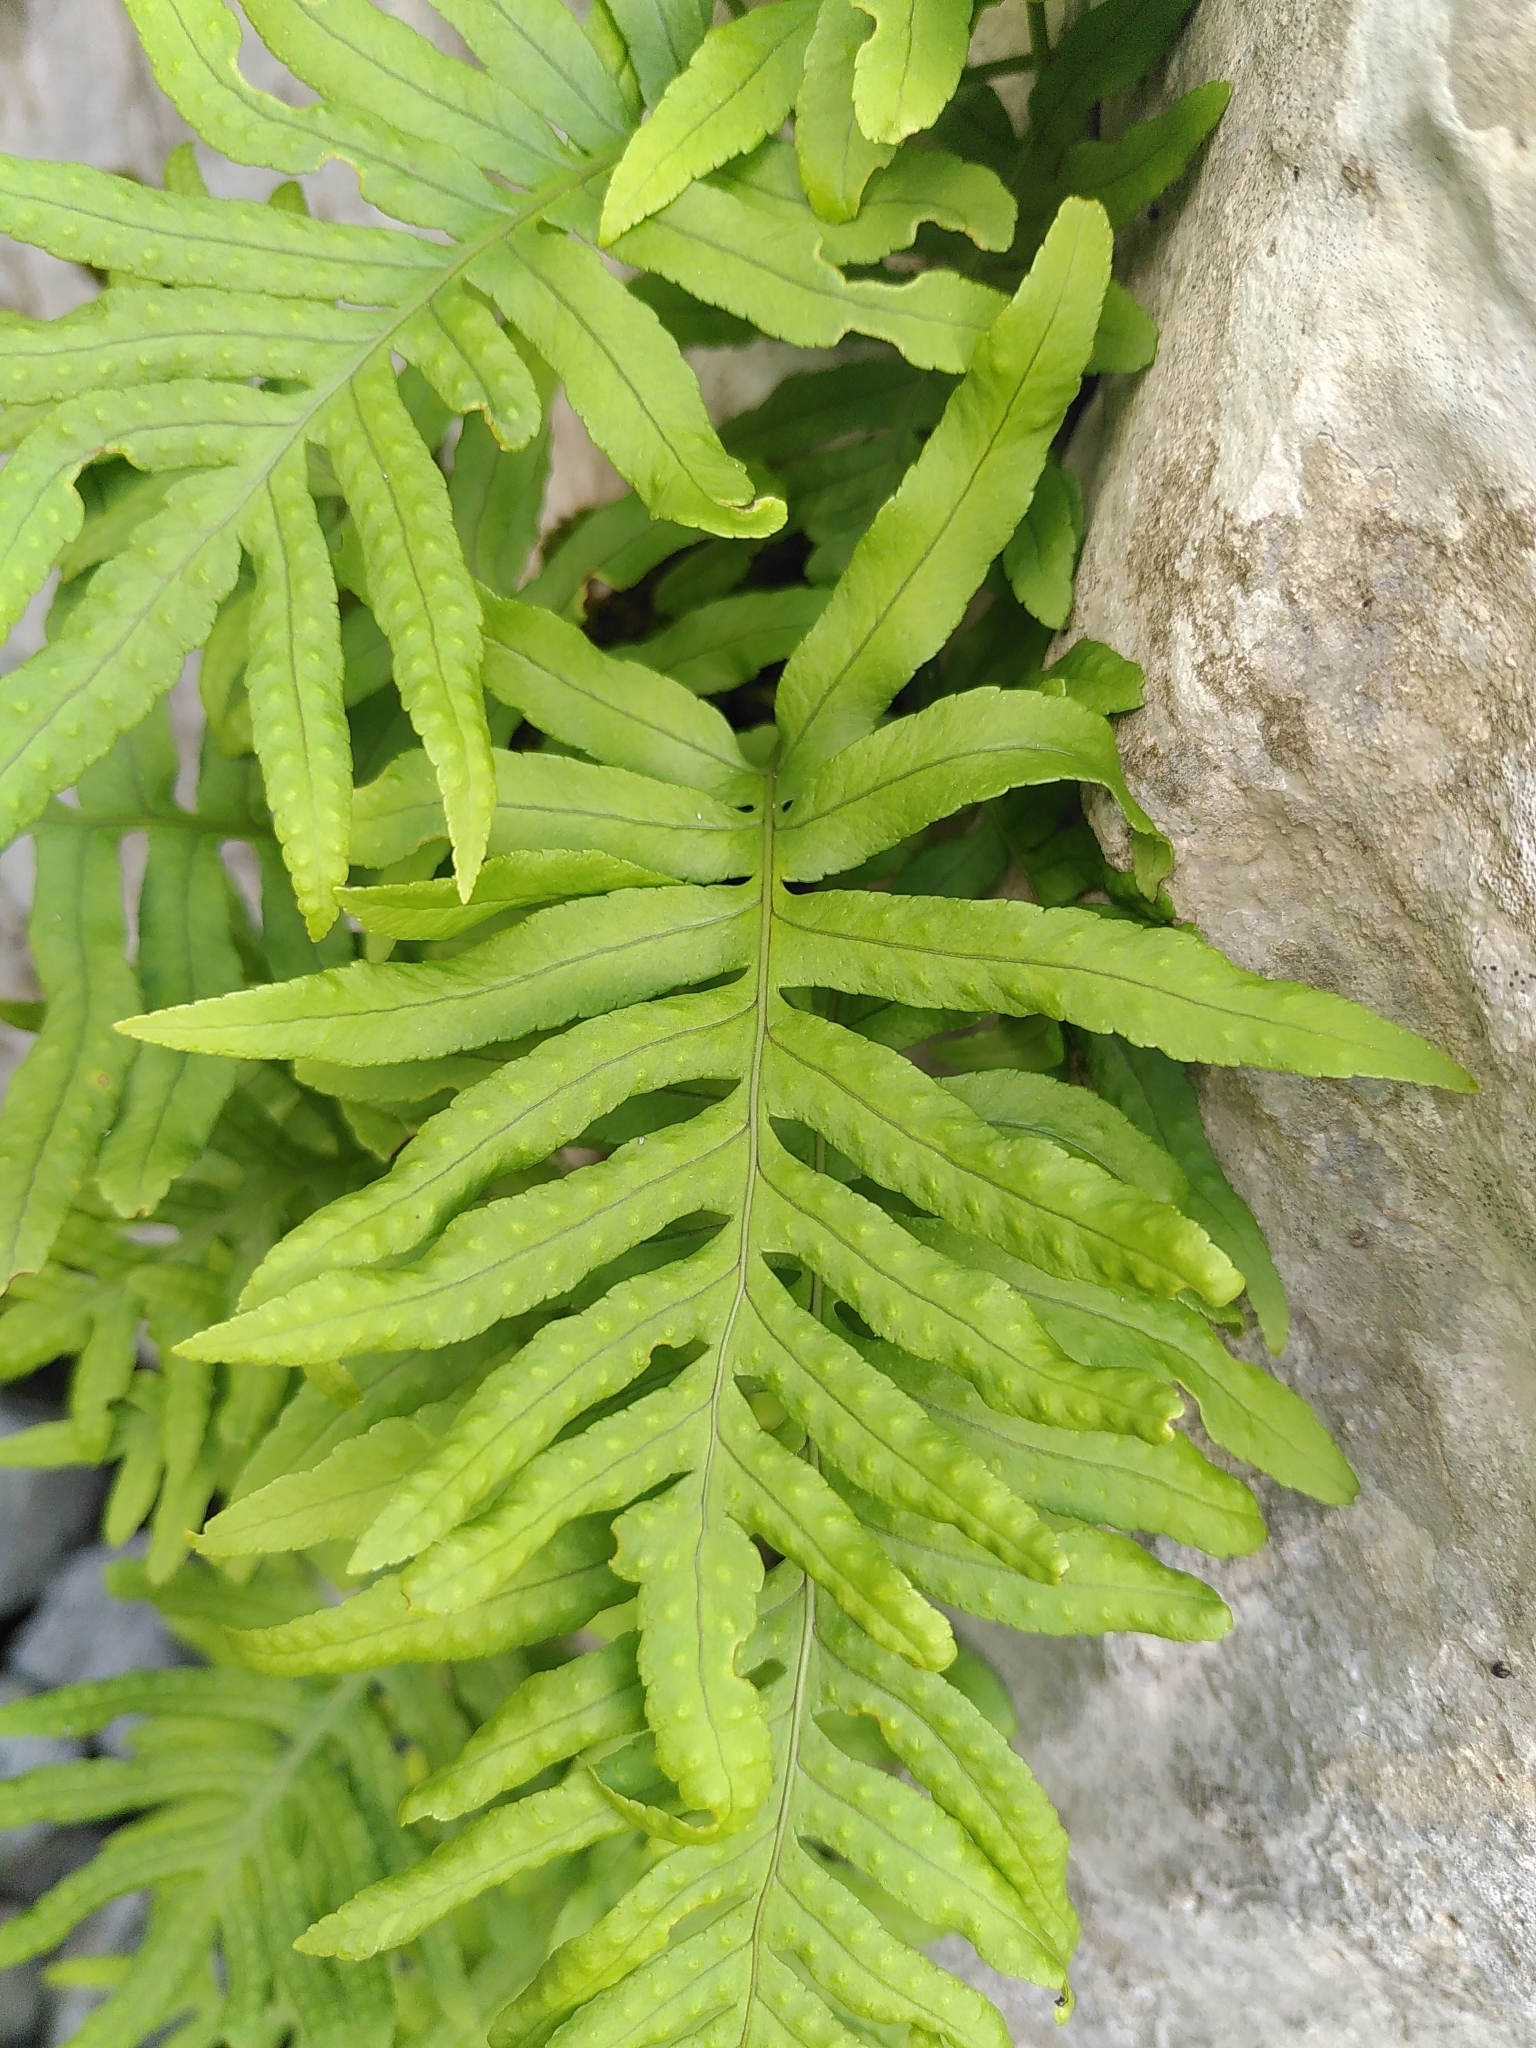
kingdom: Plantae
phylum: Tracheophyta
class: Polypodiopsida
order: Polypodiales
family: Polypodiaceae
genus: Polypodium
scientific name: Polypodium cambricum
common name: Southern polypody
